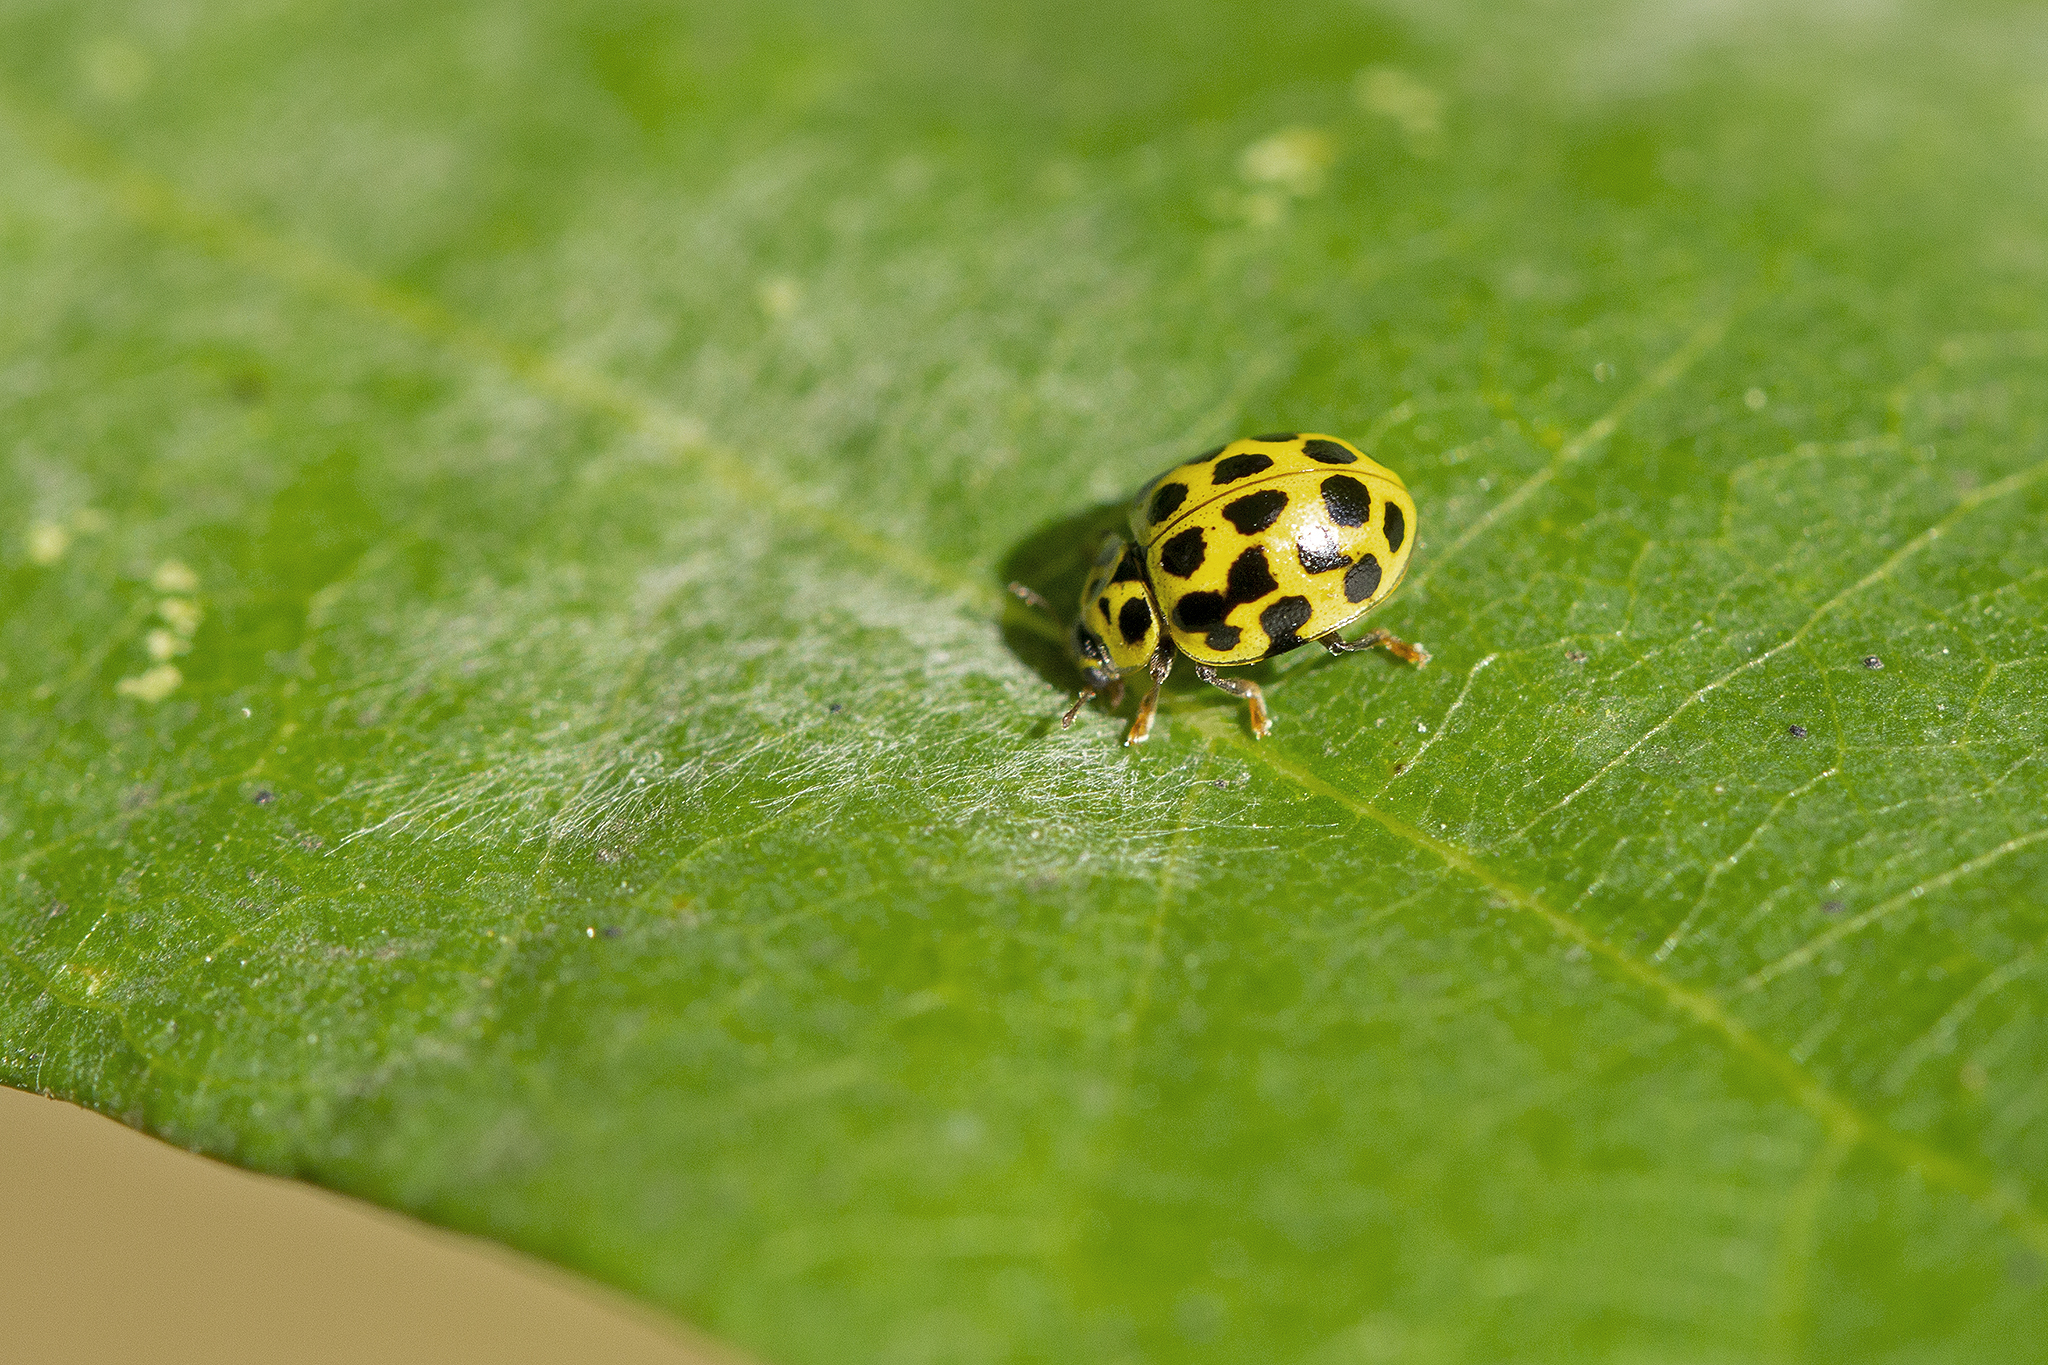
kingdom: Animalia
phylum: Arthropoda
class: Insecta
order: Coleoptera
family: Coccinellidae
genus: Psyllobora
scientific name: Psyllobora vigintiduopunctata
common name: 22-spot ladybird
